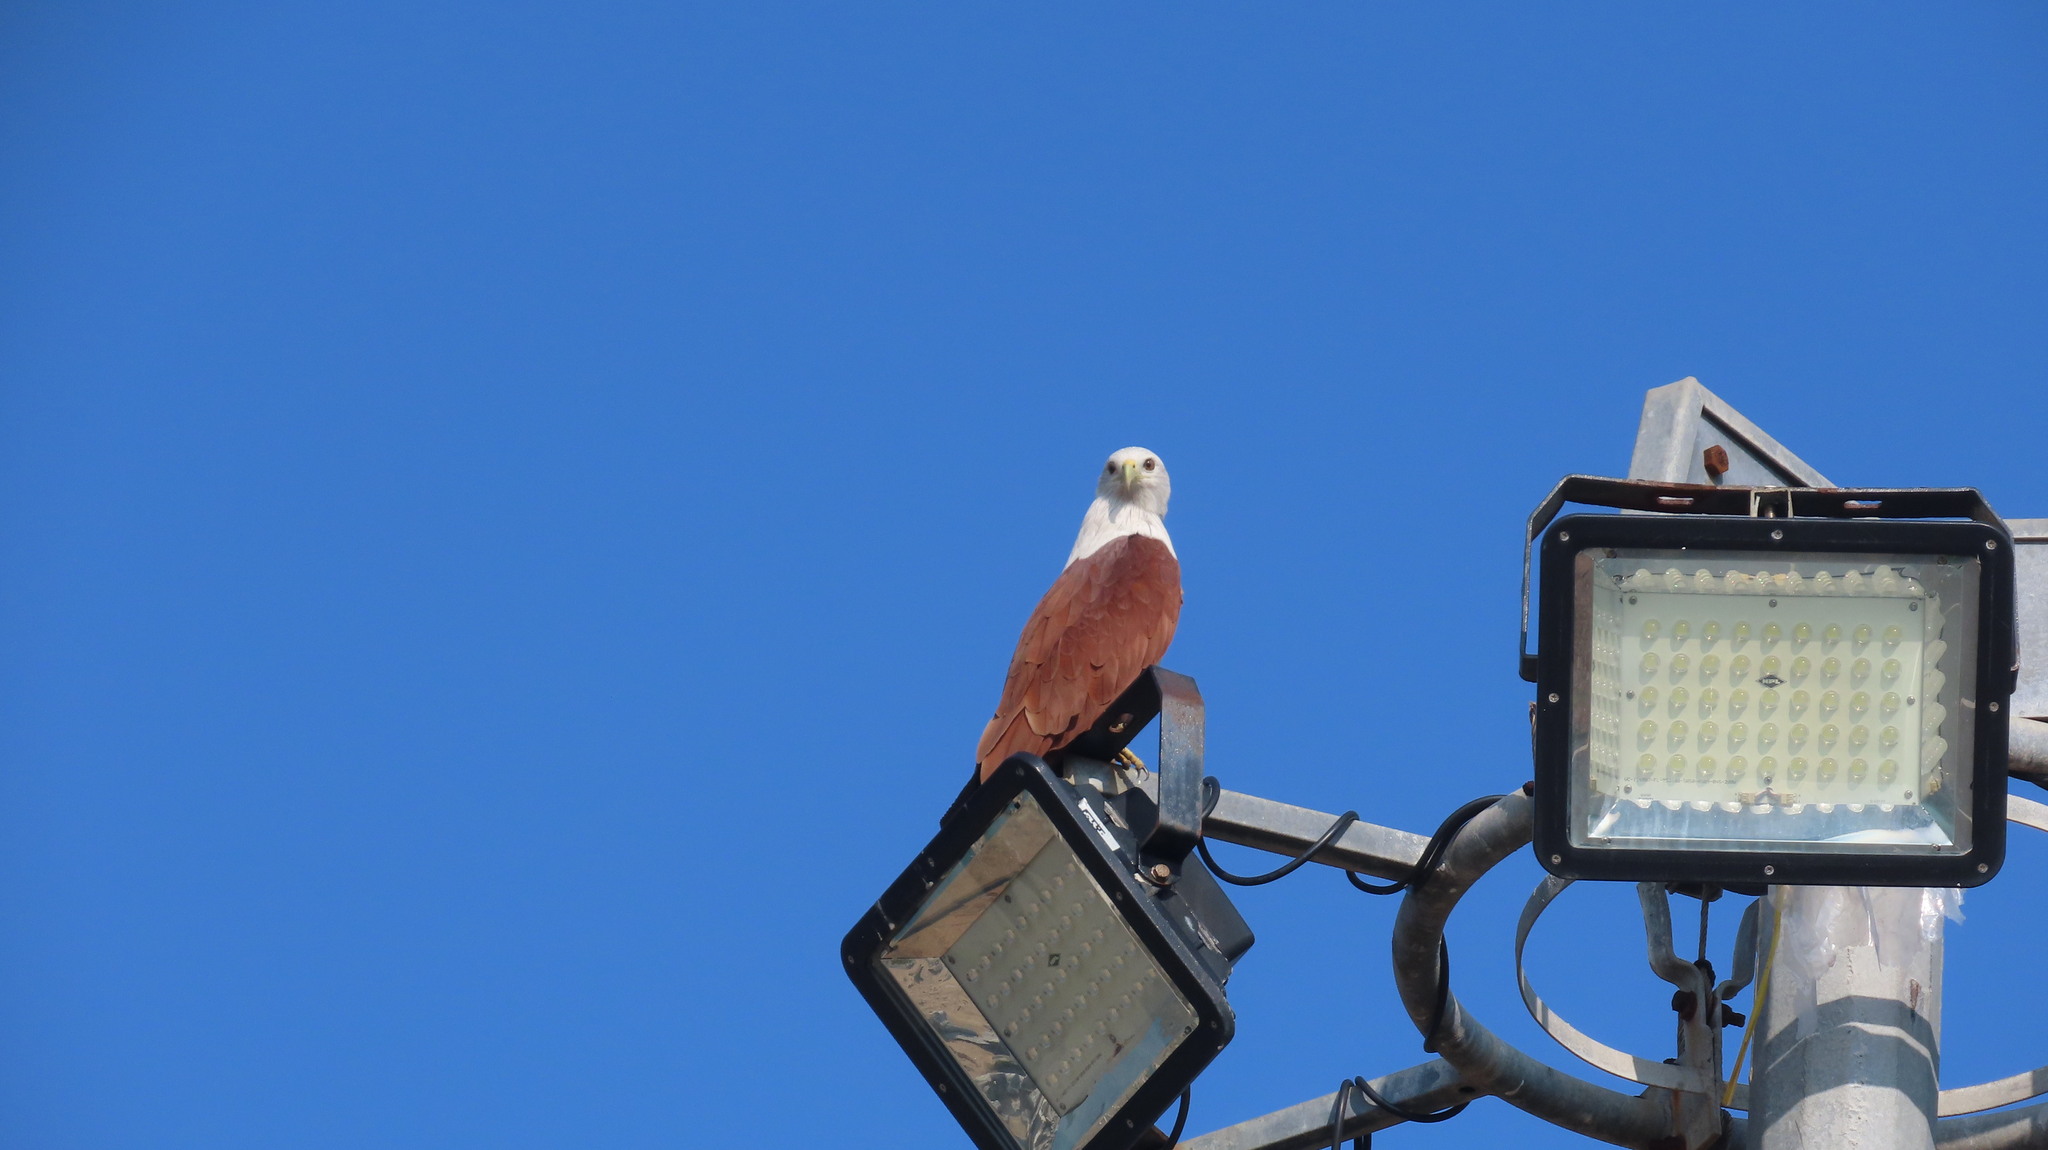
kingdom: Animalia
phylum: Chordata
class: Aves
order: Accipitriformes
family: Accipitridae
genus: Haliastur
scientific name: Haliastur indus
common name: Brahminy kite
